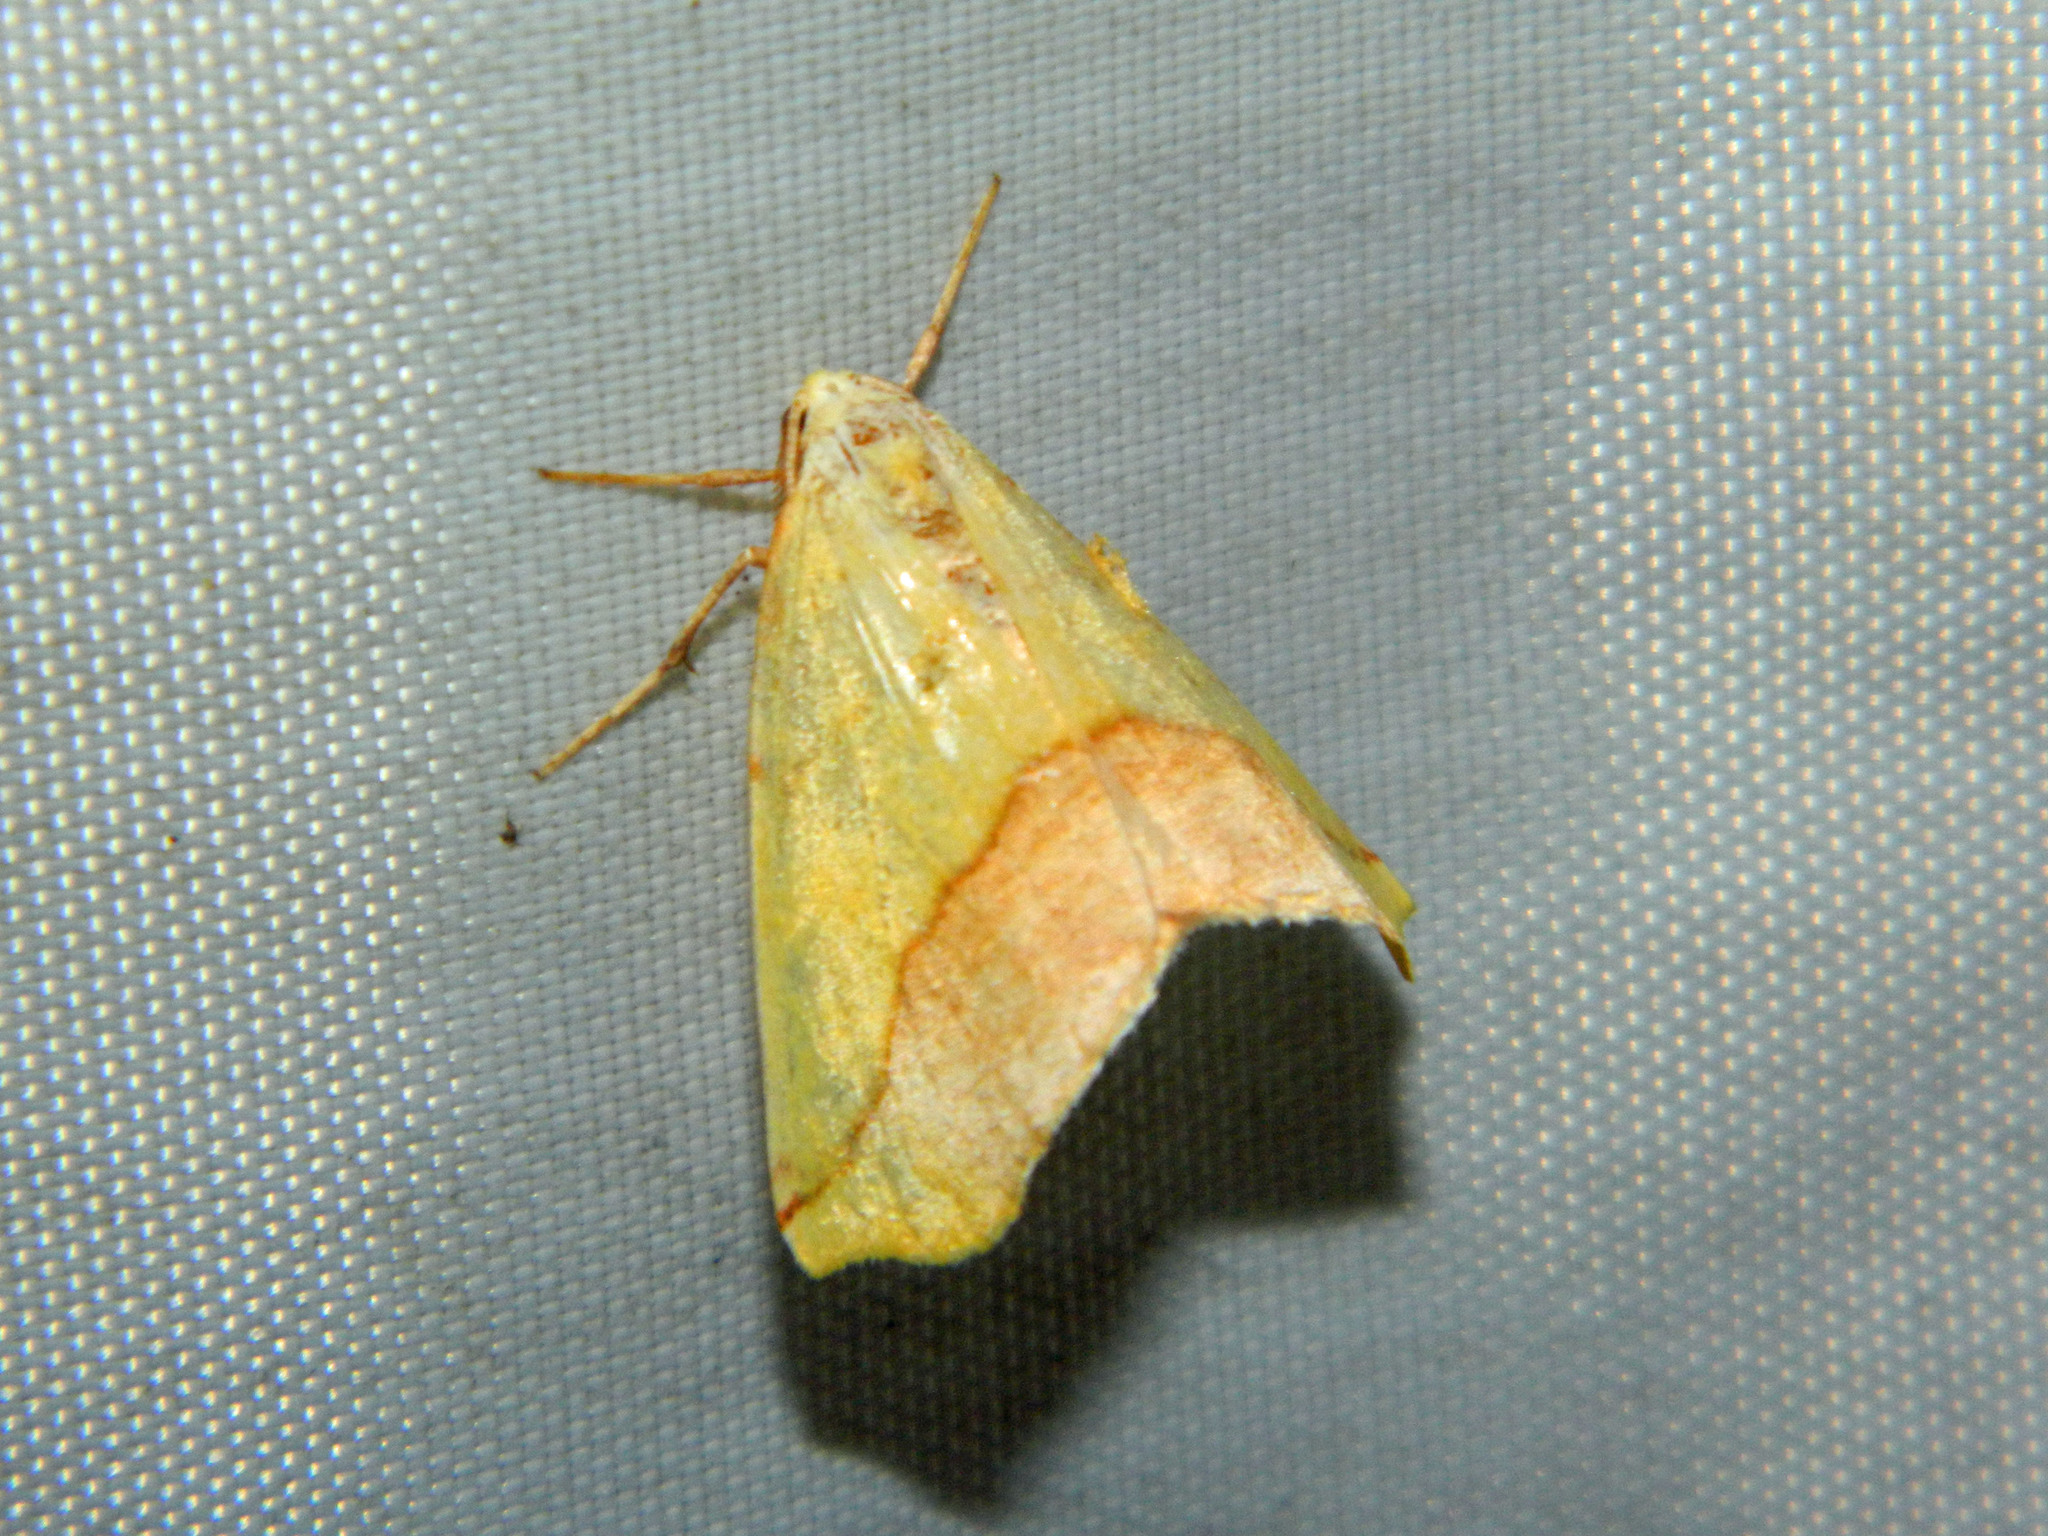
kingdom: Animalia
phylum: Arthropoda
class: Insecta
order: Lepidoptera
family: Geometridae
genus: Sicya
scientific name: Sicya macularia
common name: Sharp-lined yellow
